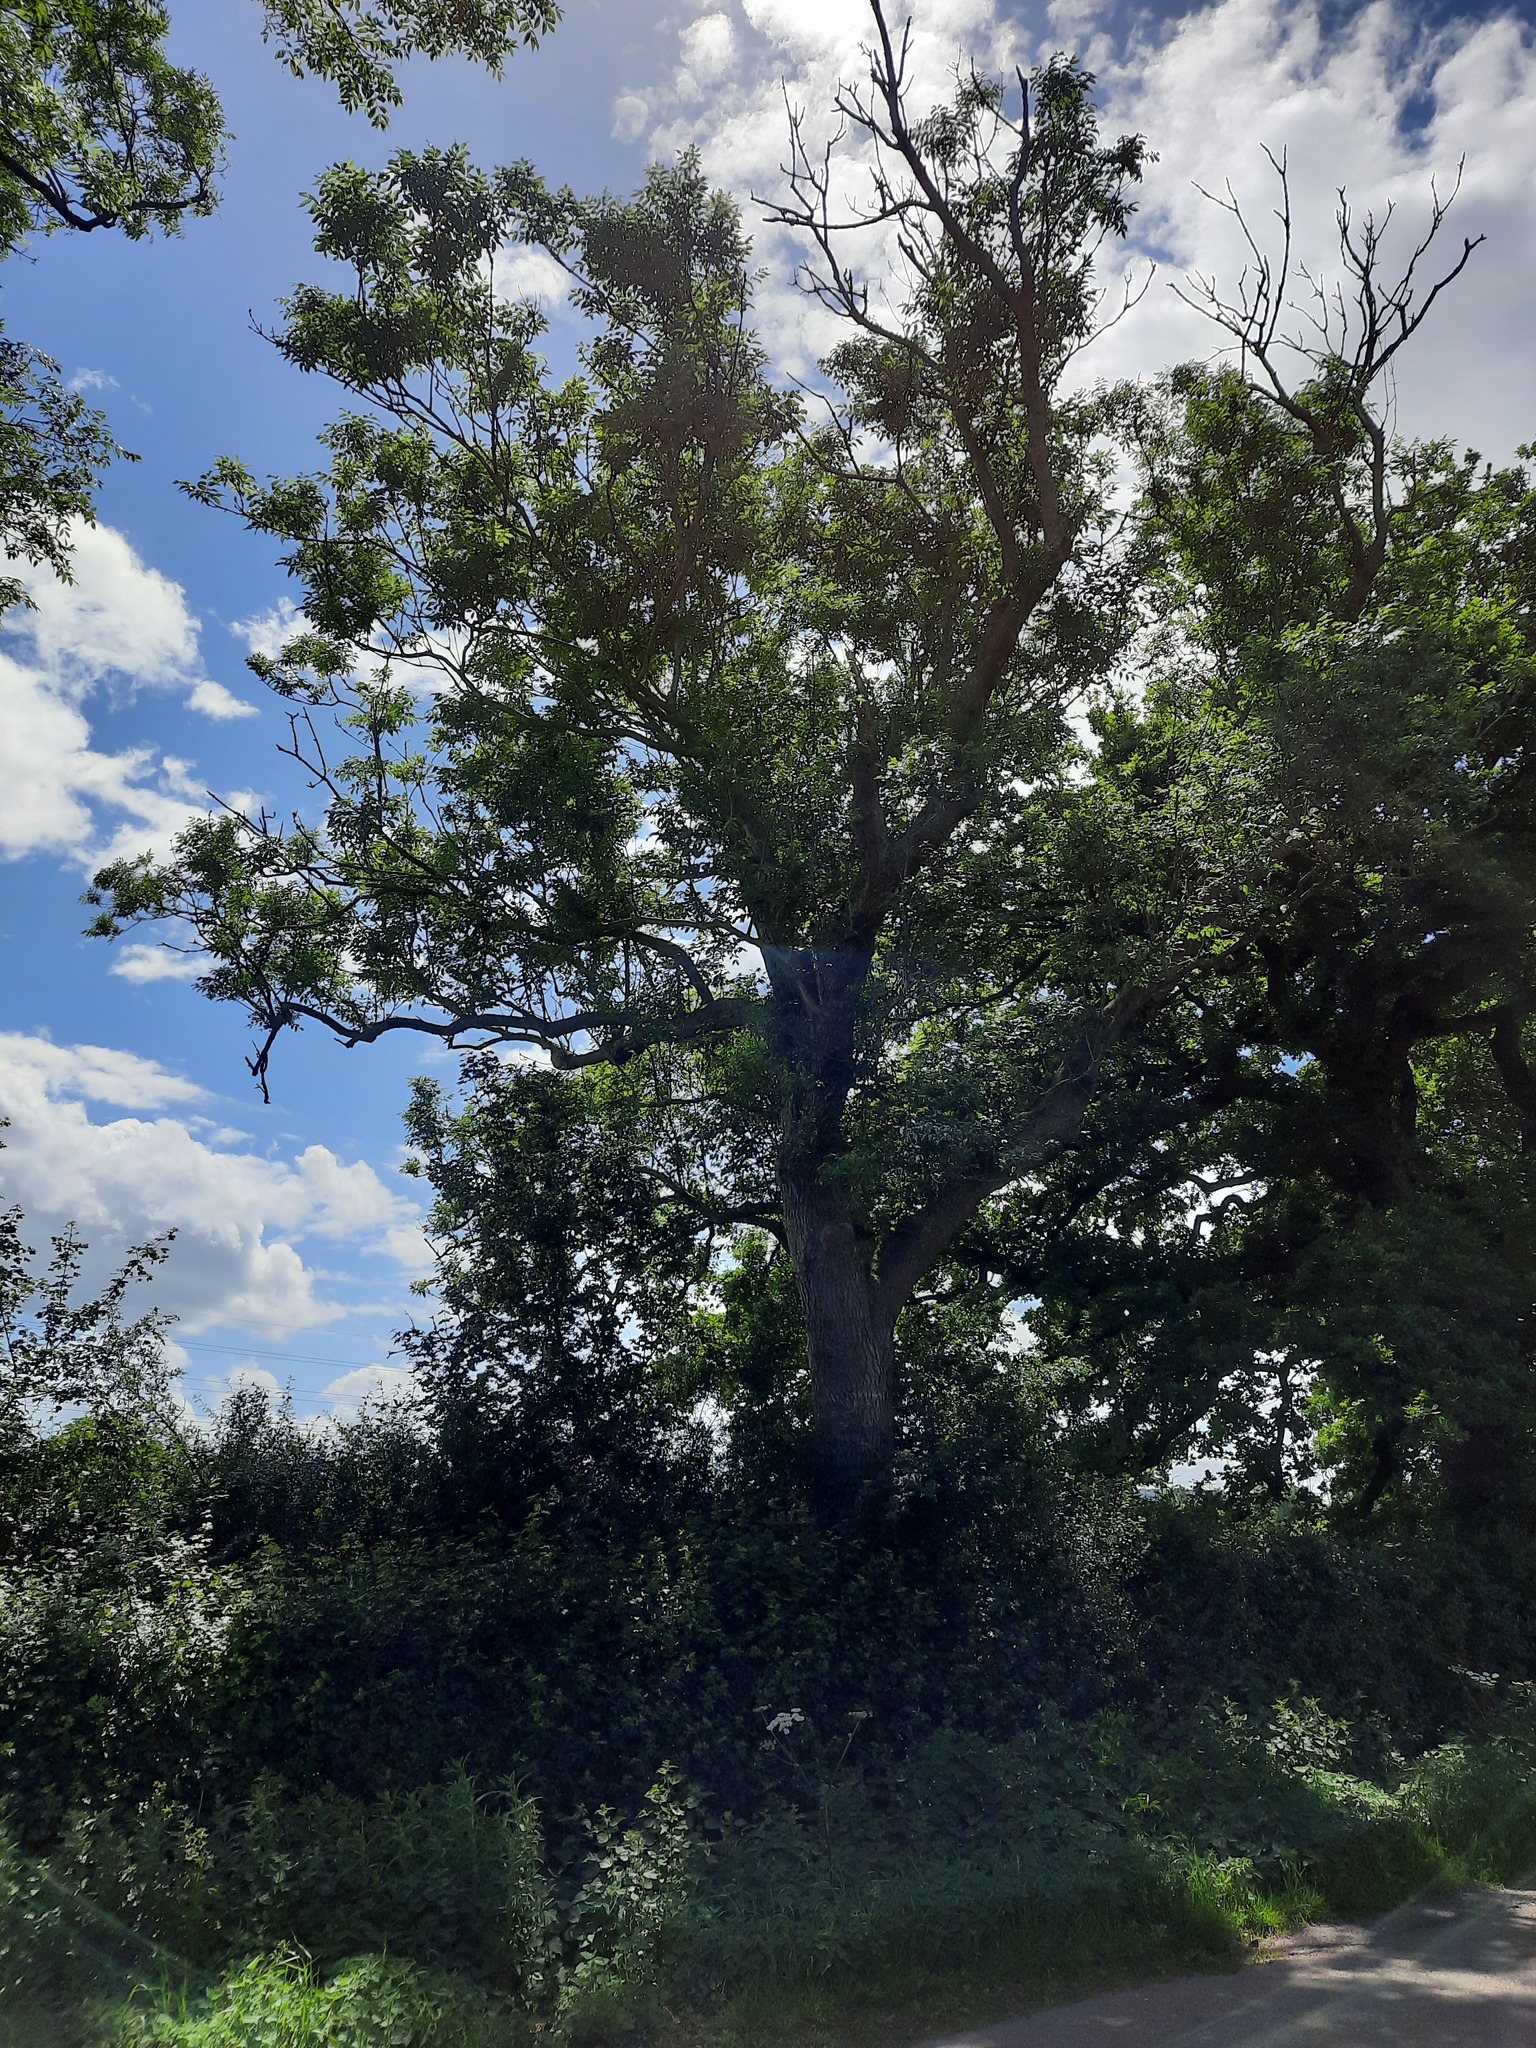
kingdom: Plantae
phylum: Tracheophyta
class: Magnoliopsida
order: Lamiales
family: Oleaceae
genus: Fraxinus
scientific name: Fraxinus excelsior
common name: European ash
